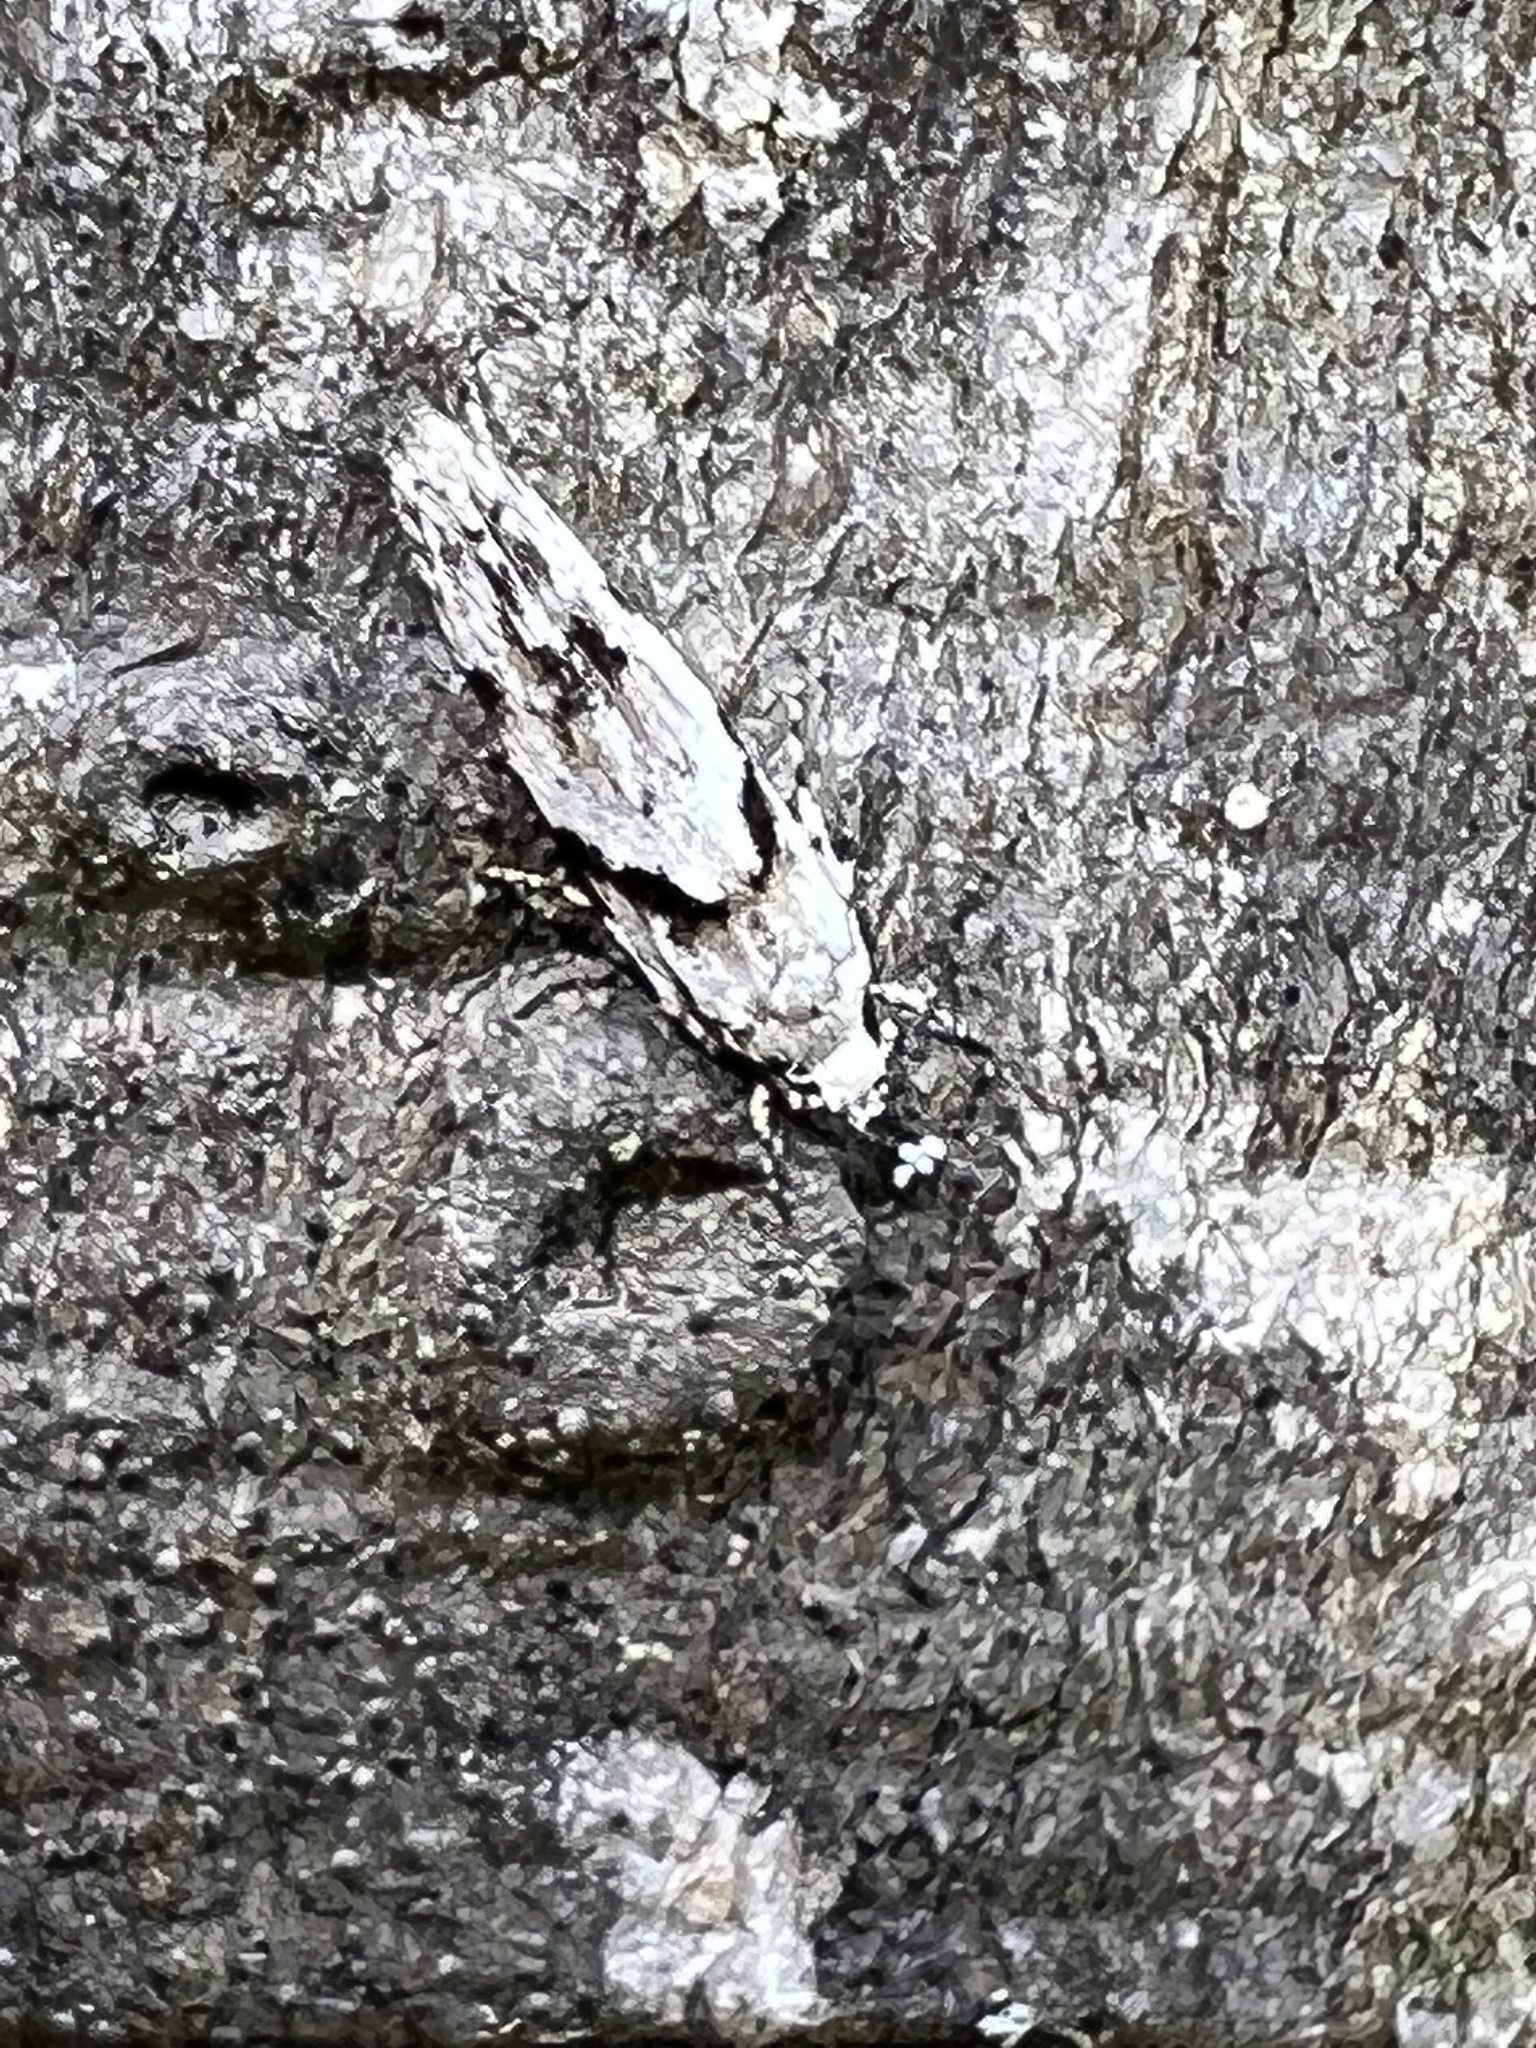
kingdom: Animalia
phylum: Arthropoda
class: Insecta
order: Lepidoptera
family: Gelechiidae
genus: Arogalea
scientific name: Arogalea cristifasciella
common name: White stripe-backed moth
